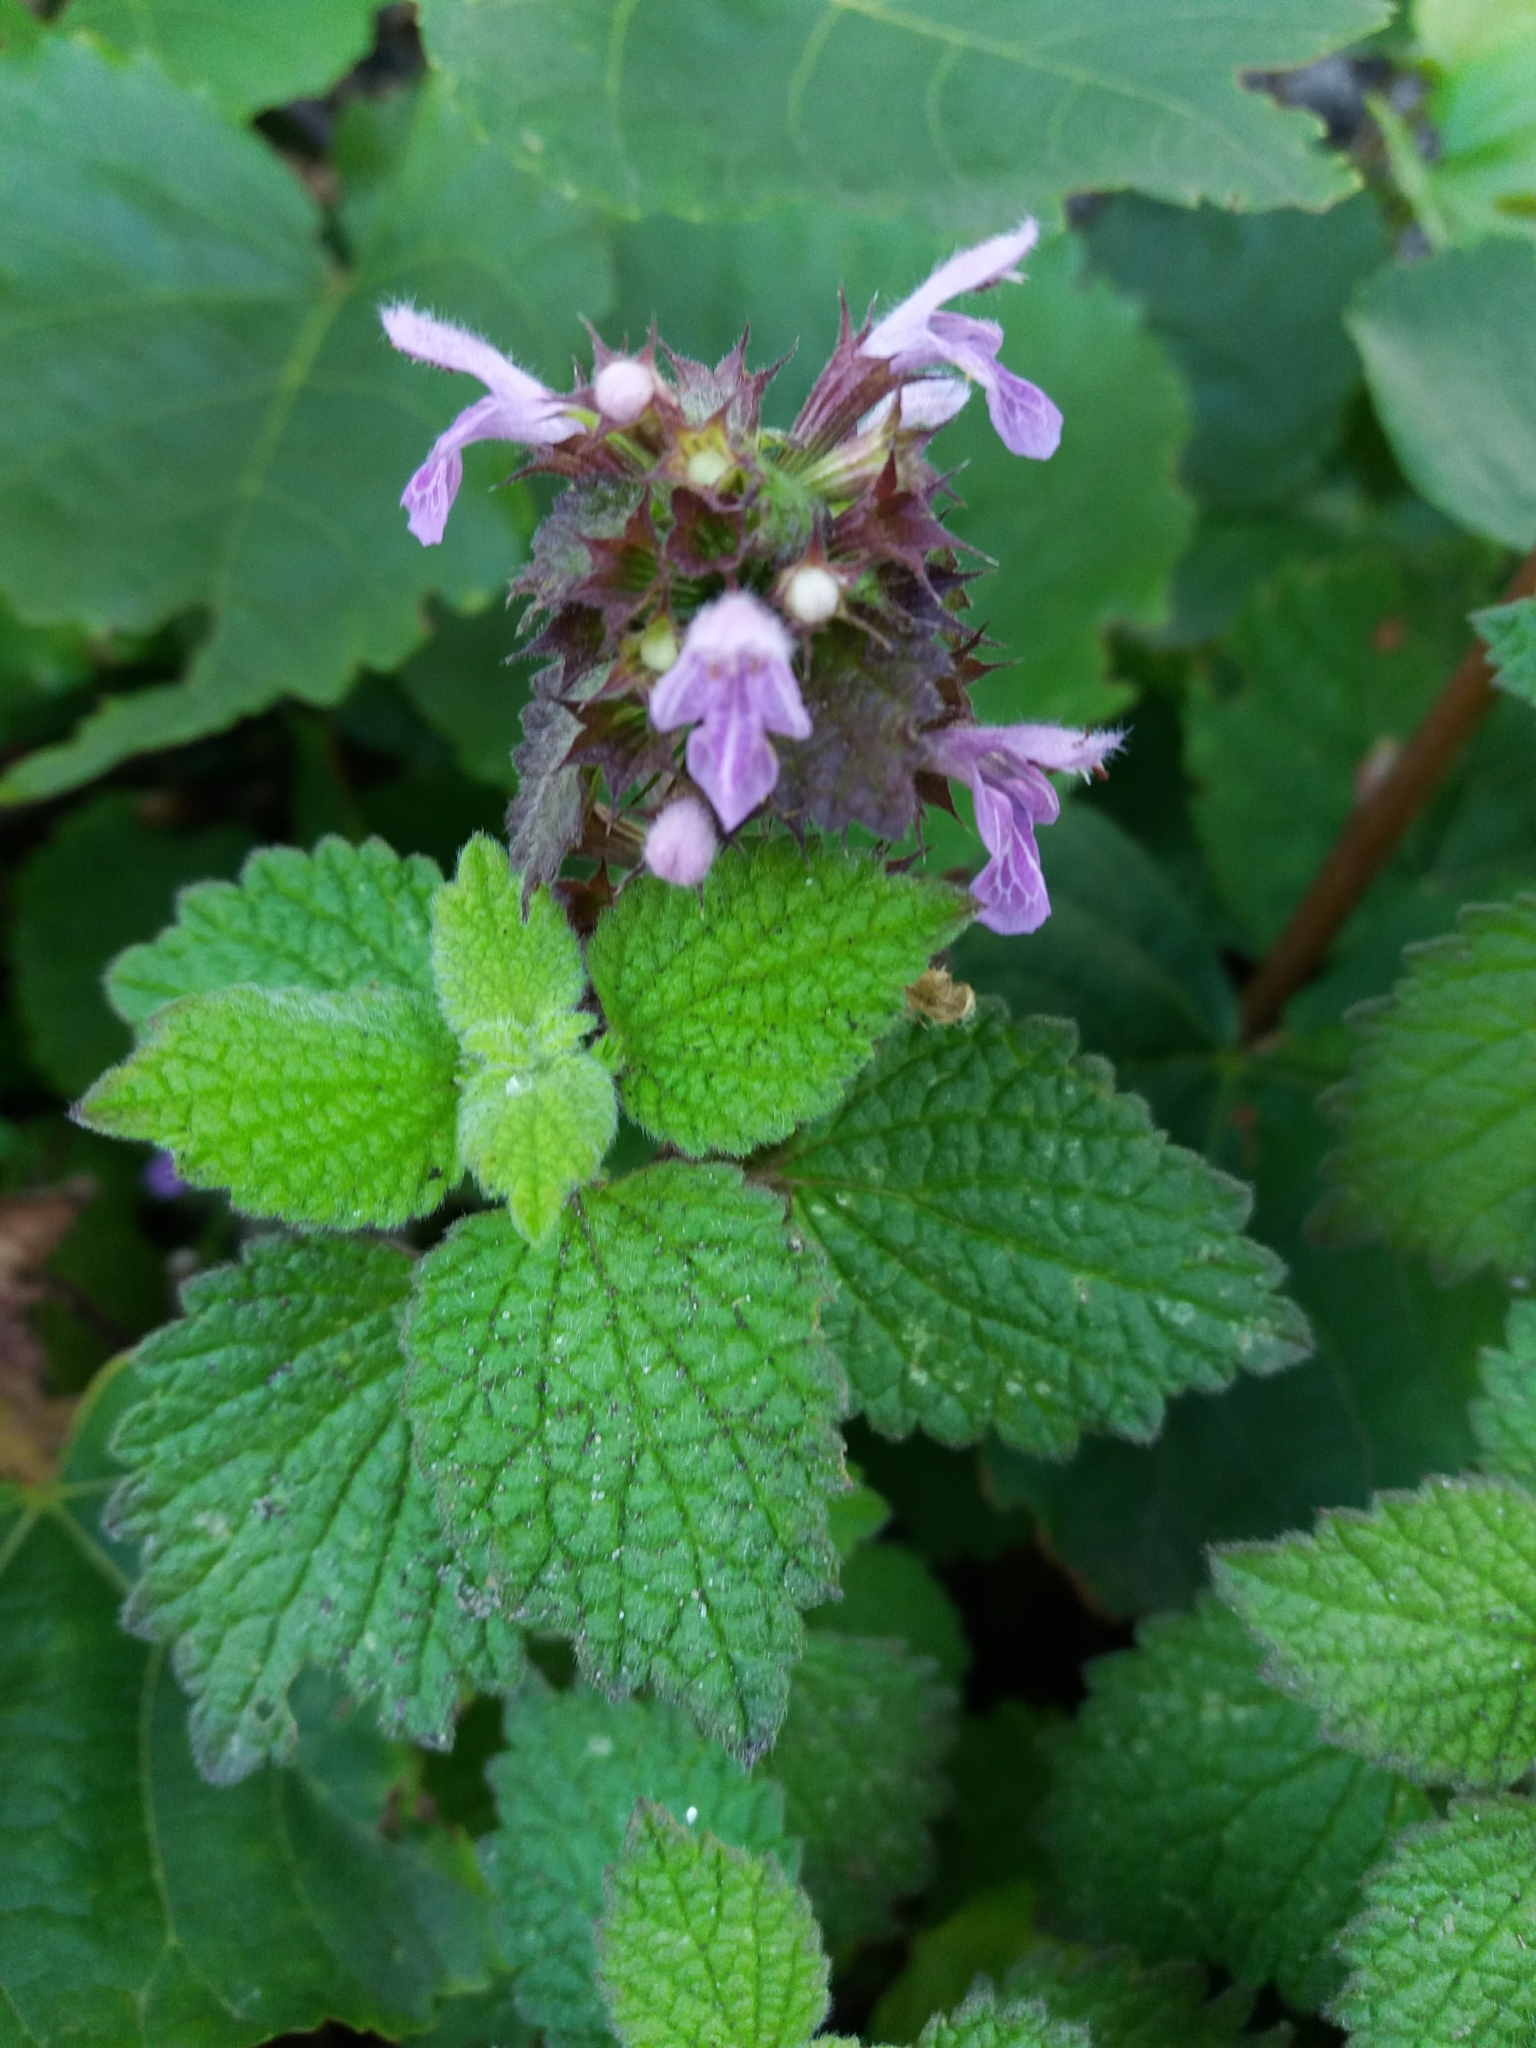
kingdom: Plantae
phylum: Tracheophyta
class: Magnoliopsida
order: Lamiales
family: Lamiaceae
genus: Ballota
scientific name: Ballota nigra
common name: Black horehound
